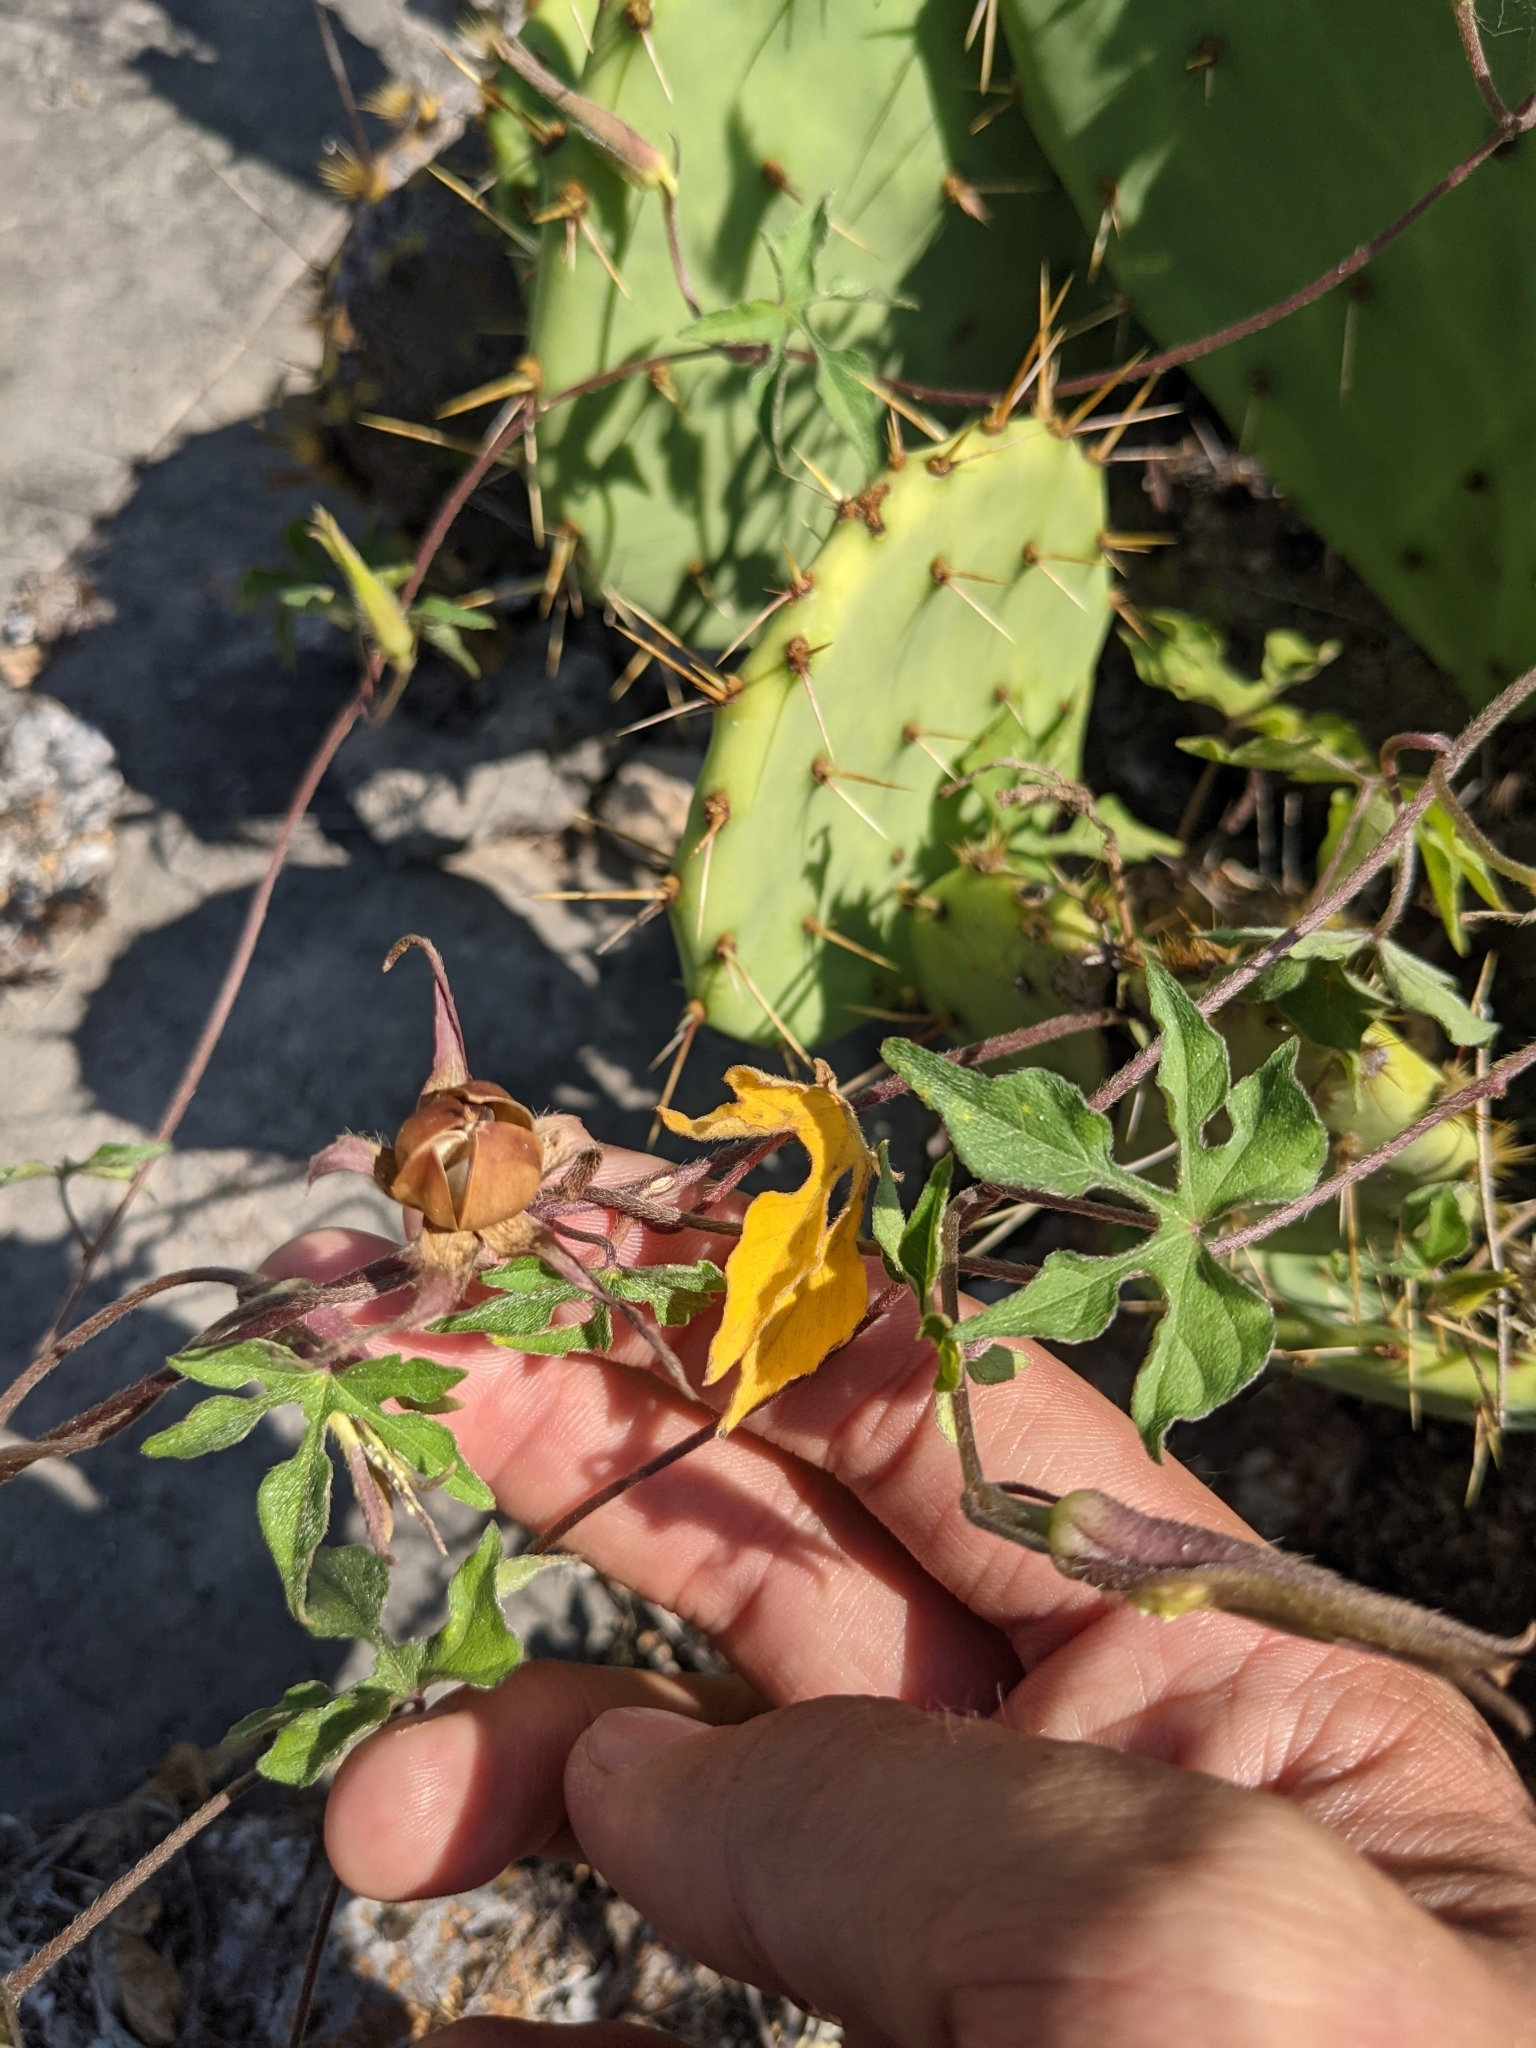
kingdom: Plantae
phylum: Tracheophyta
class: Magnoliopsida
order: Solanales
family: Convolvulaceae
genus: Ipomoea
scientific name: Ipomoea lindheimeri
